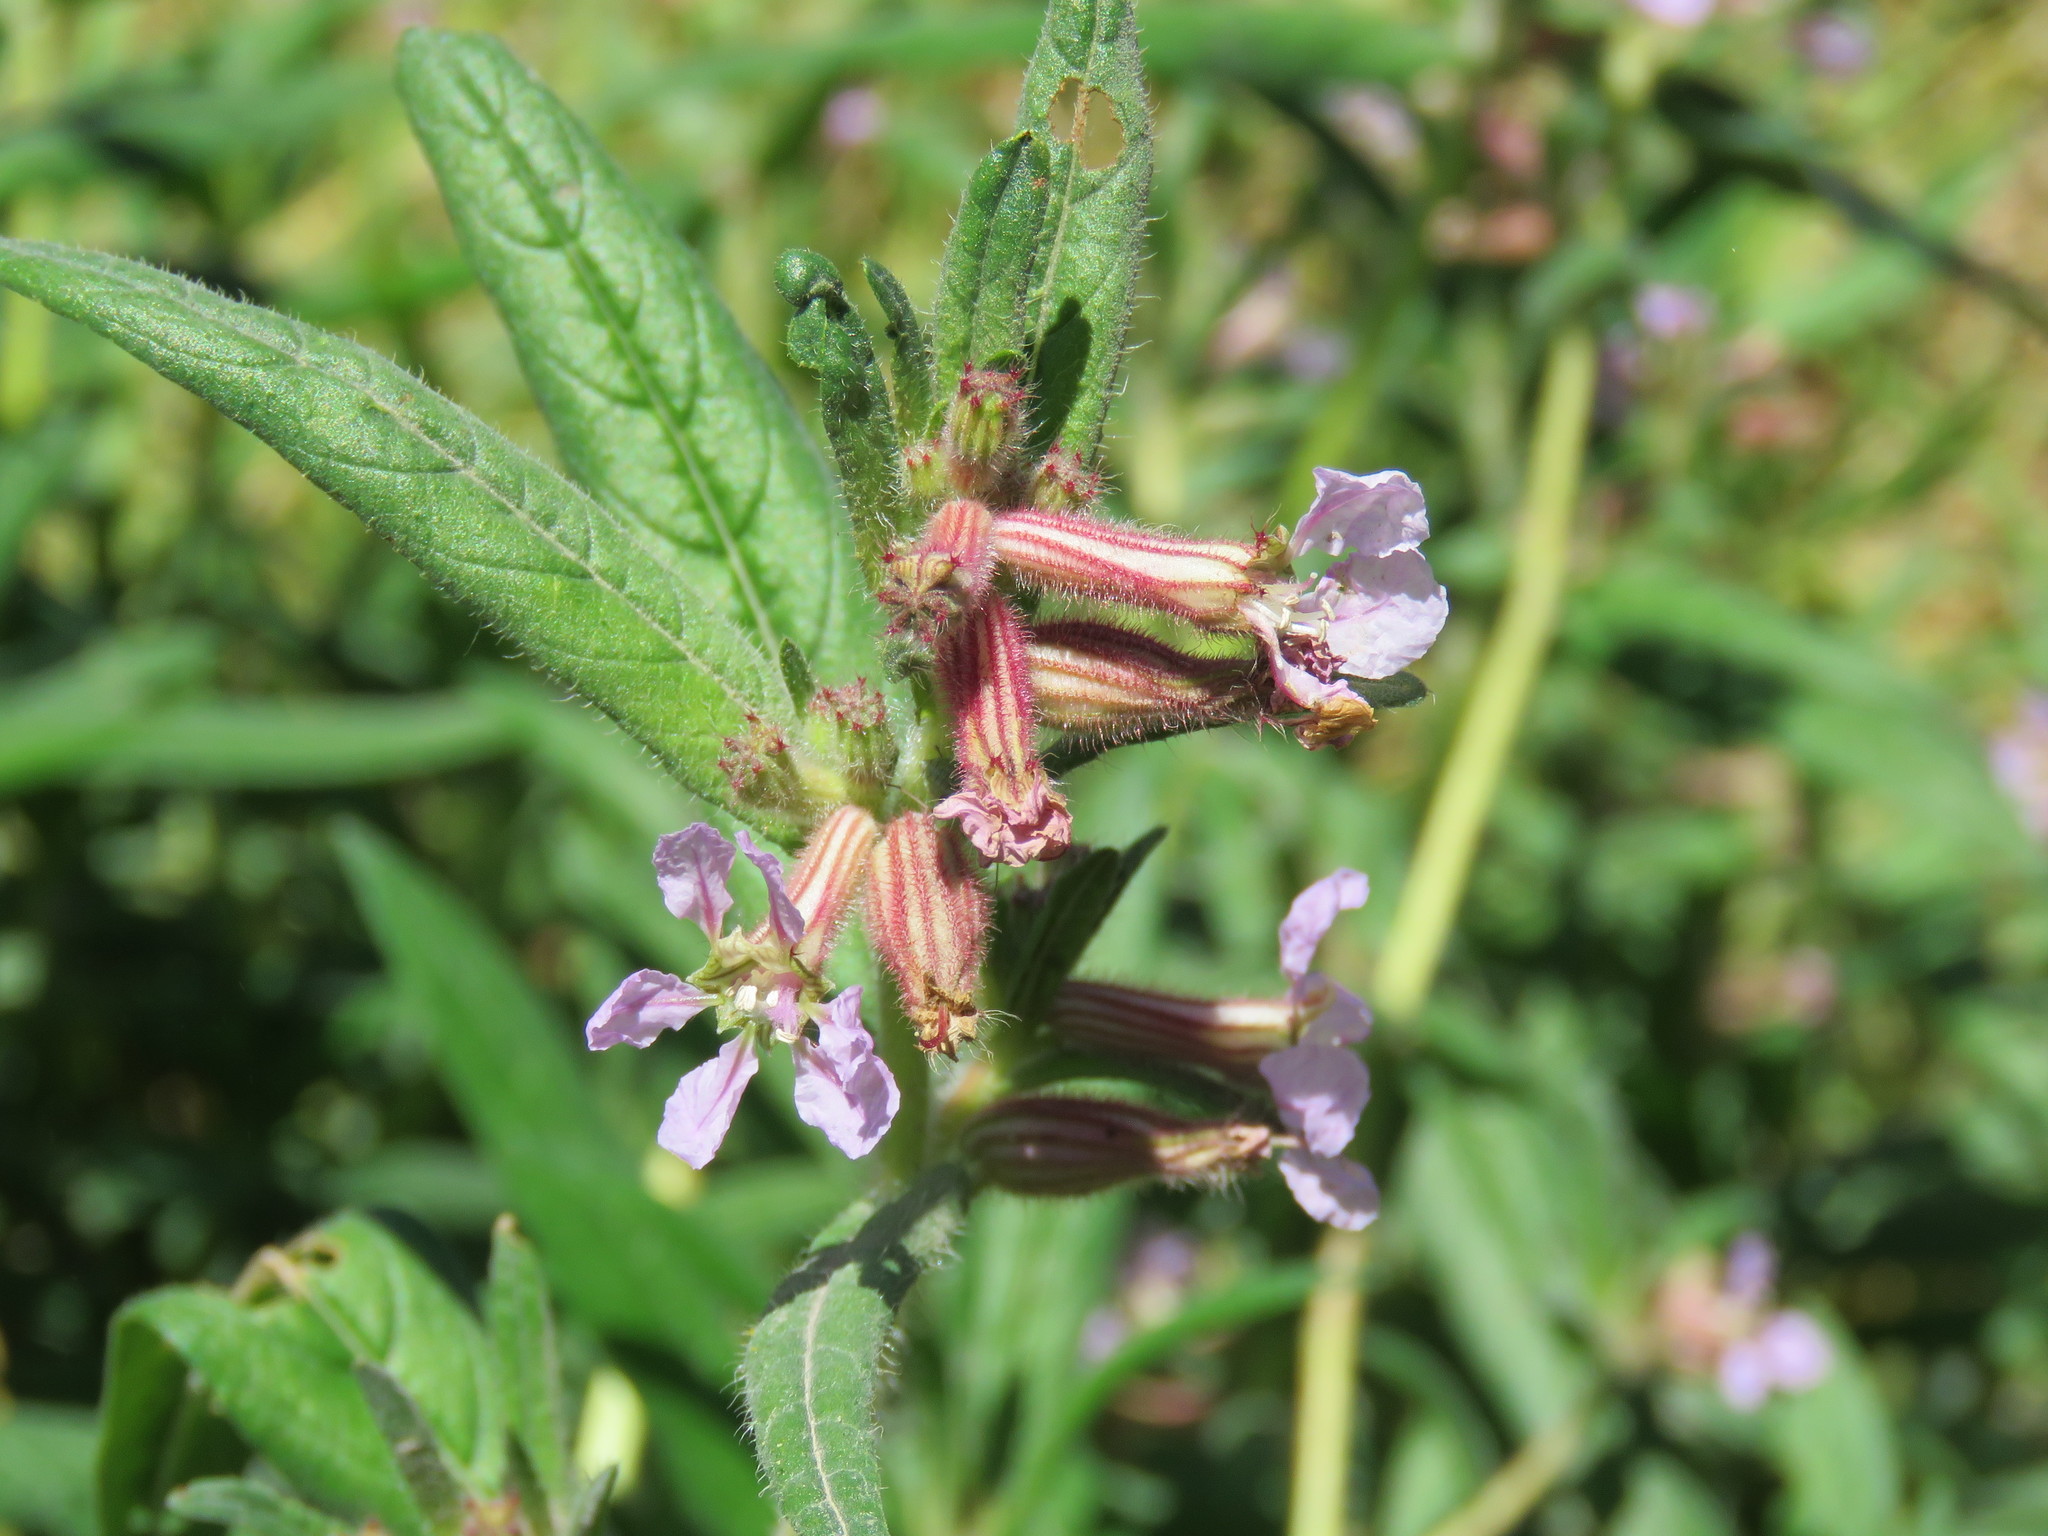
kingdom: Plantae
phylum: Tracheophyta
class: Magnoliopsida
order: Myrtales
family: Lythraceae
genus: Cuphea
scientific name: Cuphea wrightii
